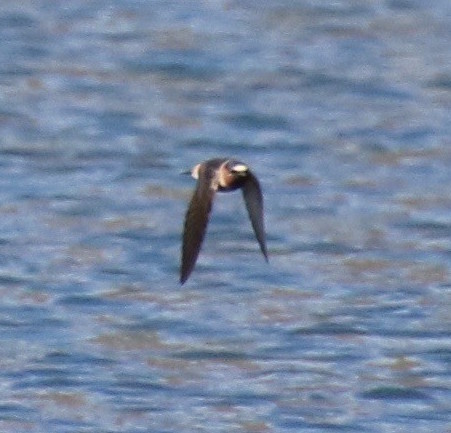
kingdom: Animalia
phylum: Chordata
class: Aves
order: Passeriformes
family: Hirundinidae
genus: Petrochelidon
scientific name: Petrochelidon pyrrhonota
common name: American cliff swallow
